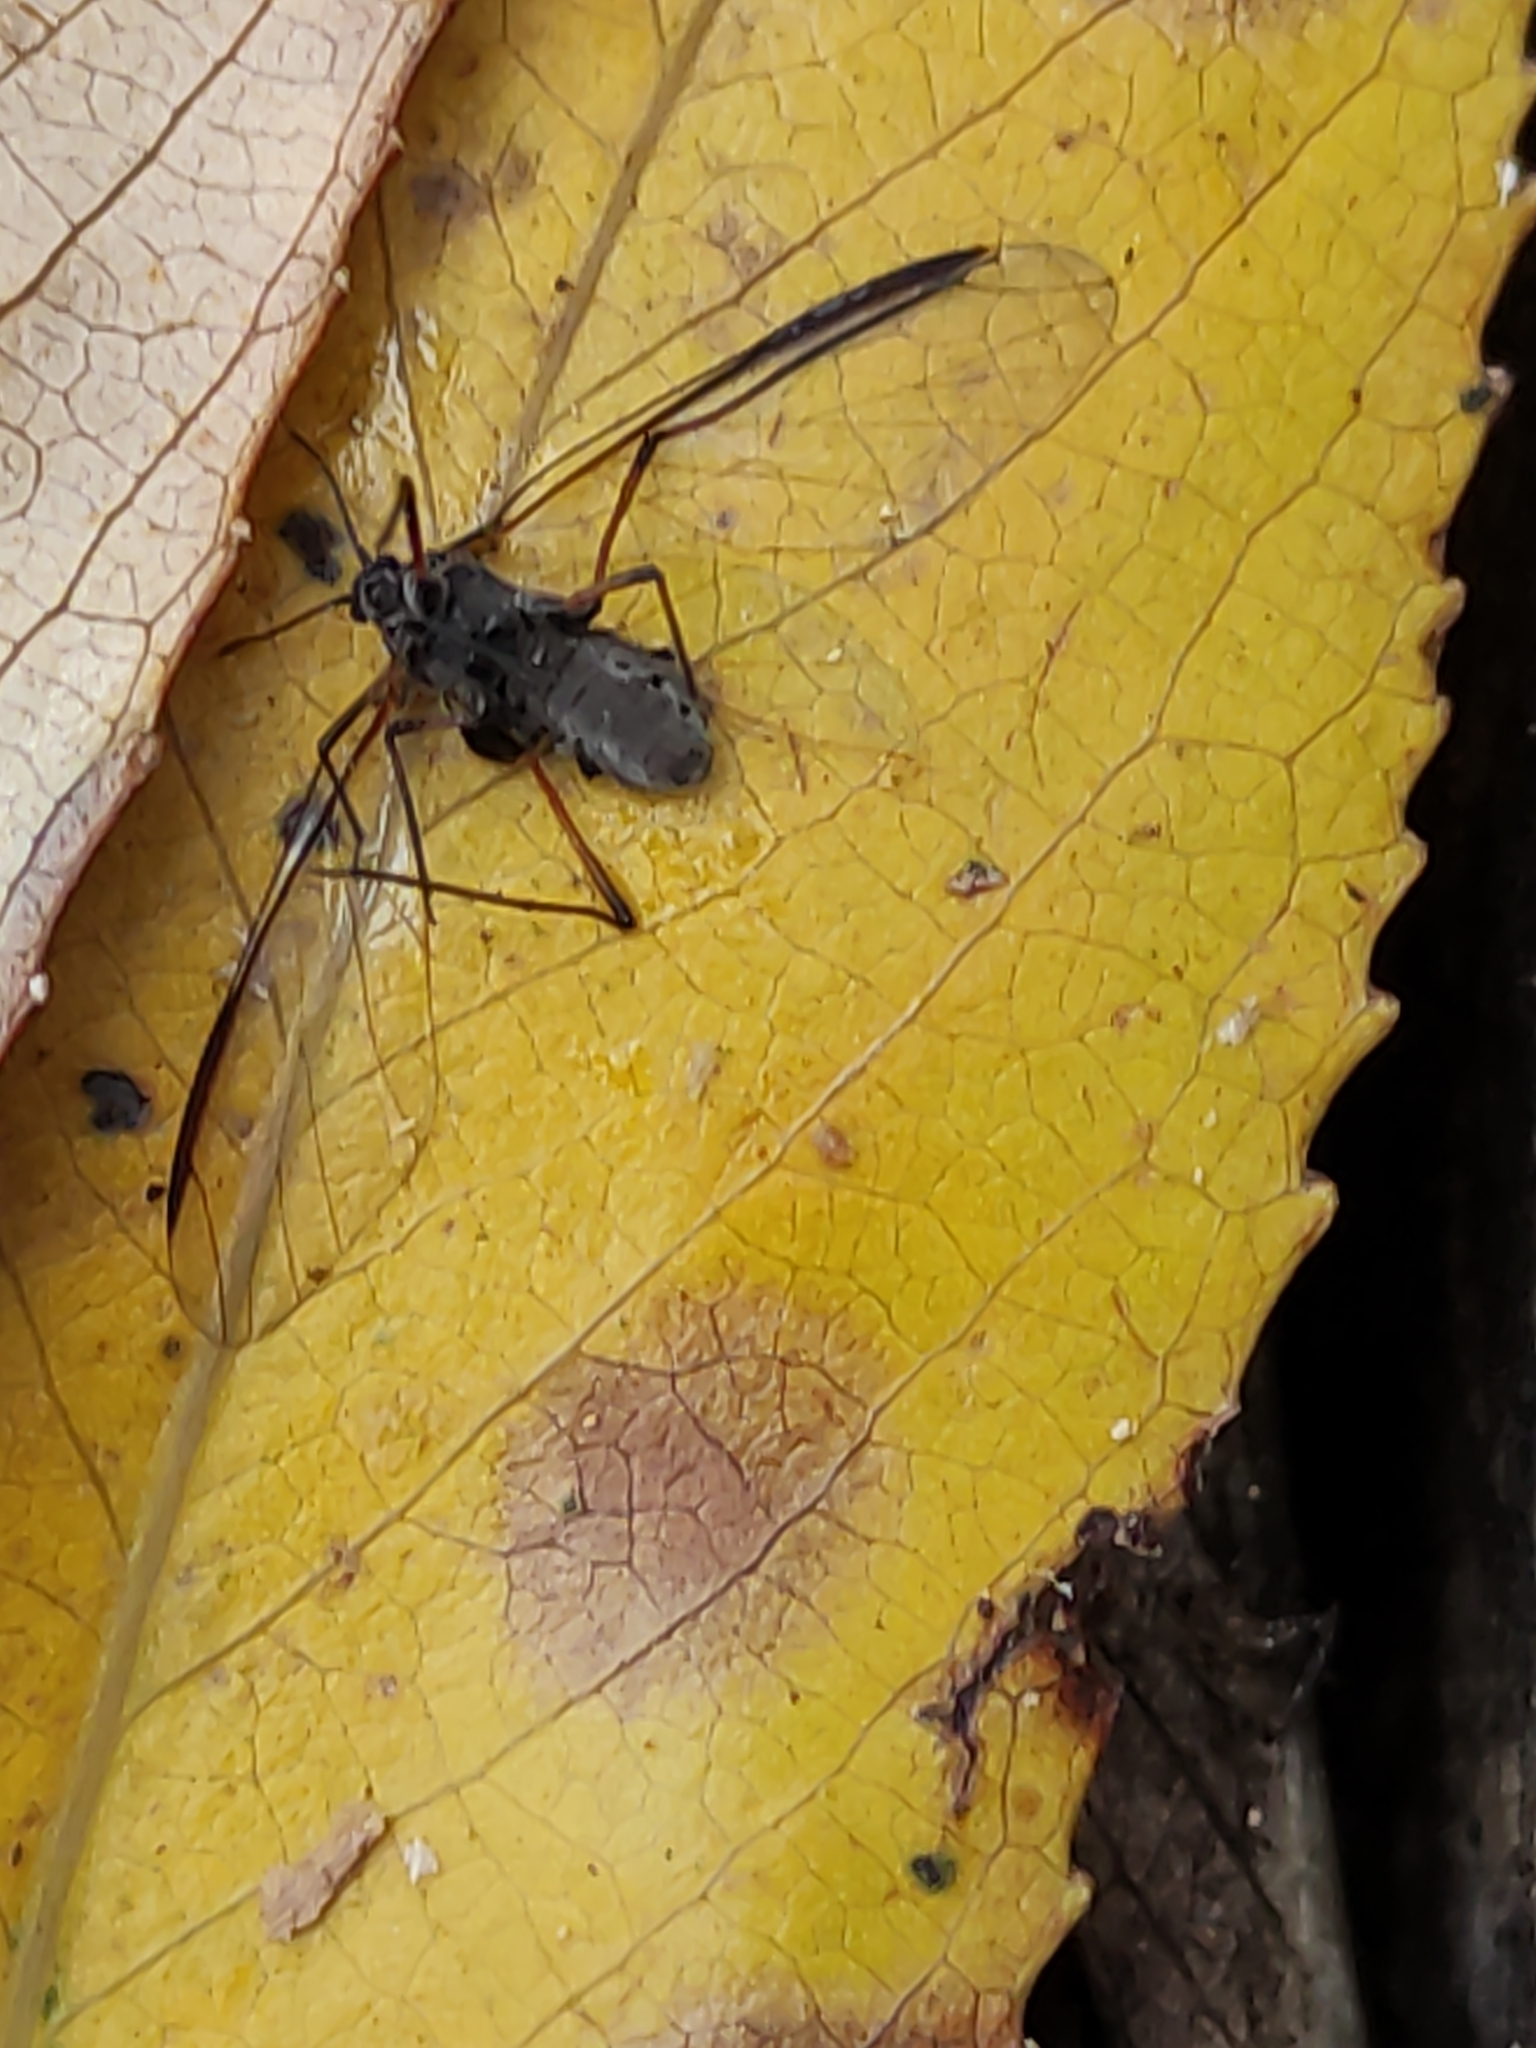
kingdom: Animalia
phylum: Arthropoda
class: Insecta
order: Hemiptera
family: Aphididae
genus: Tuberolachnus
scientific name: Tuberolachnus salignus
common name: Giant willow aphid
